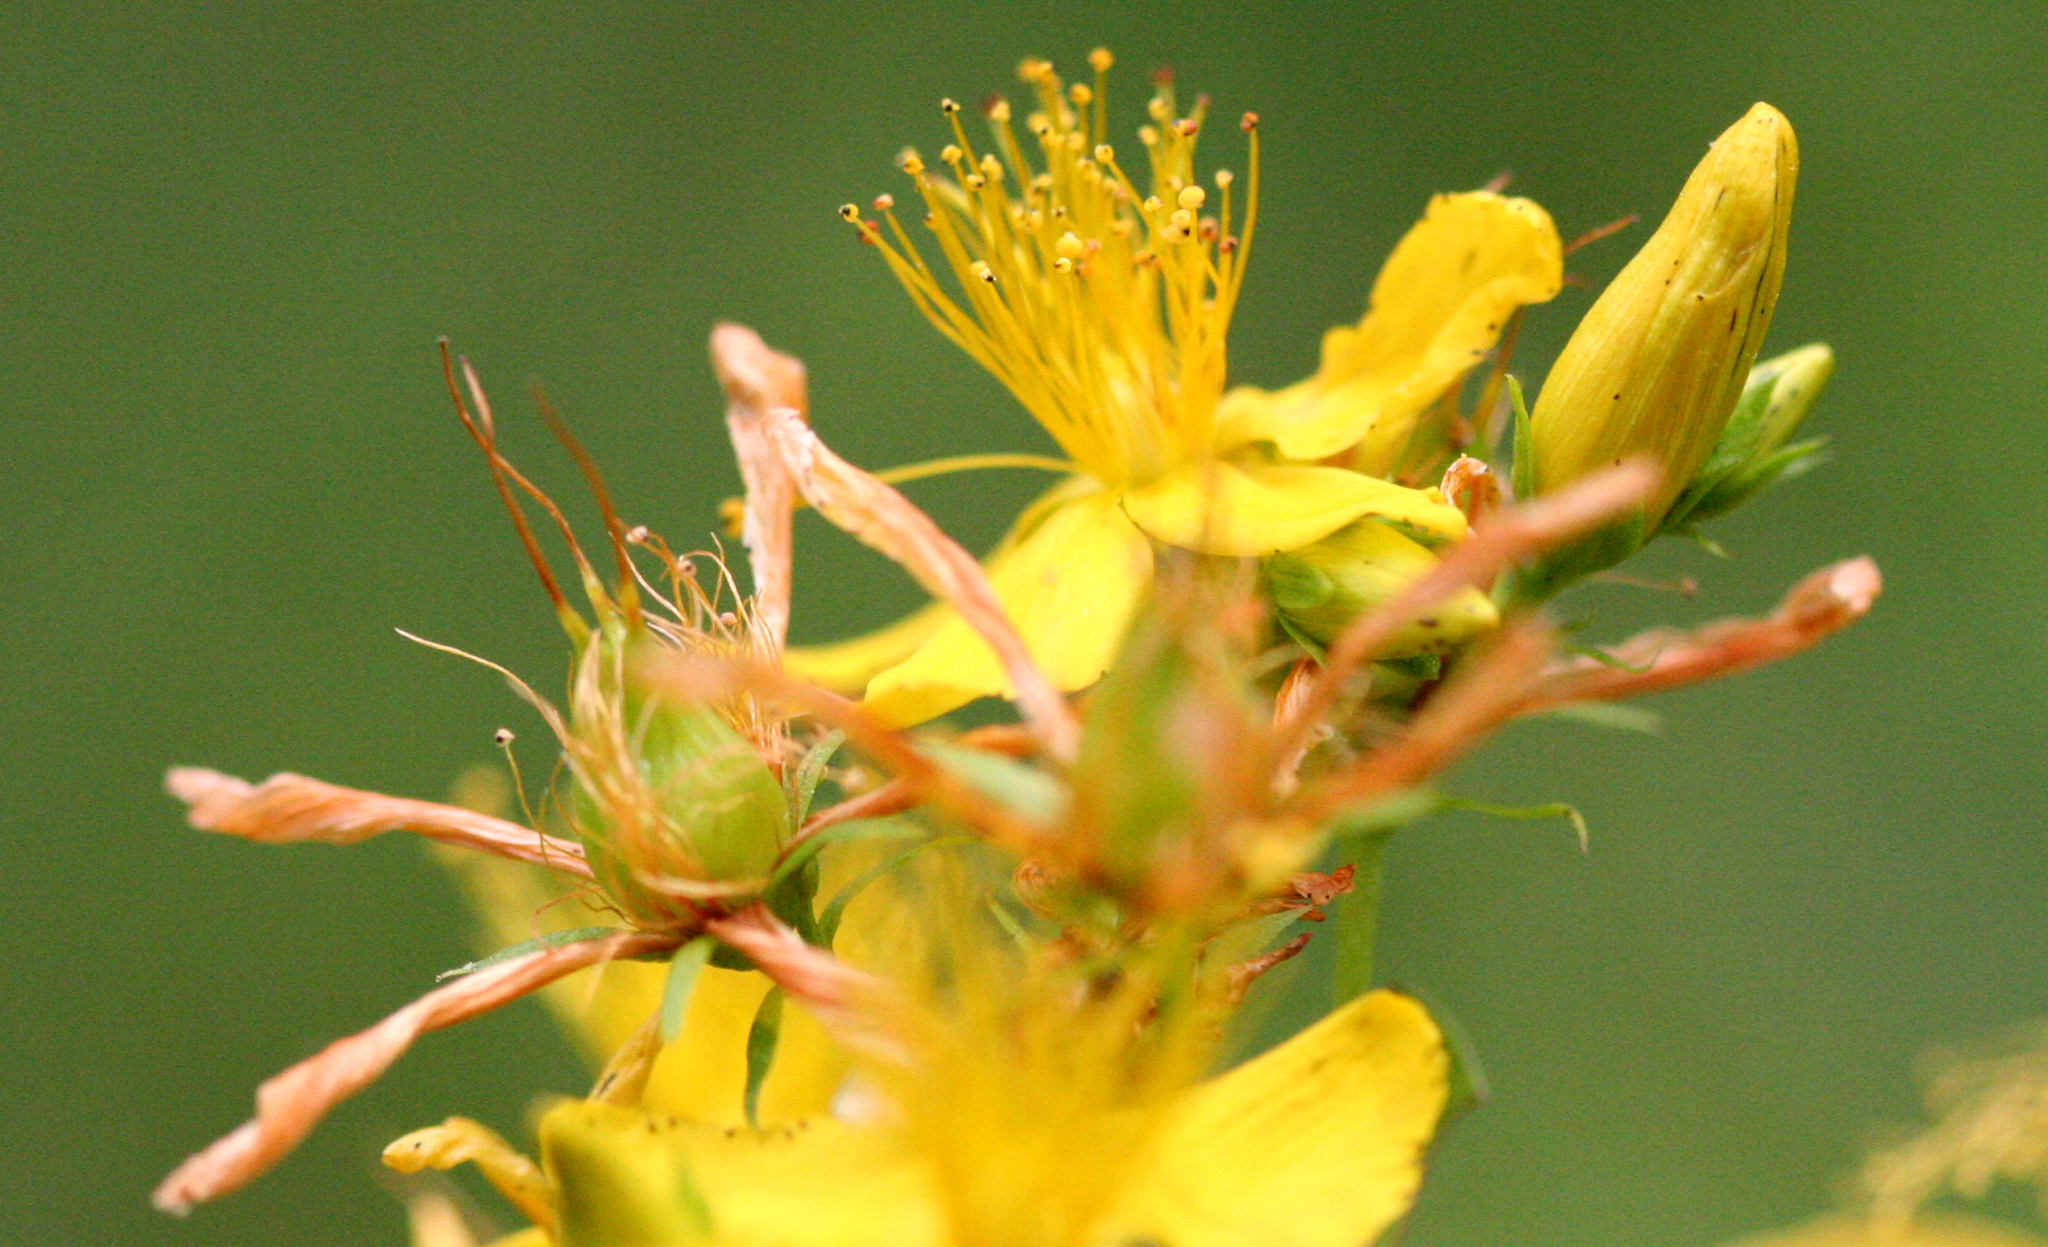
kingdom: Plantae
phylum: Tracheophyta
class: Magnoliopsida
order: Malpighiales
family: Hypericaceae
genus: Hypericum
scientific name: Hypericum perforatum
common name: Common st. johnswort
